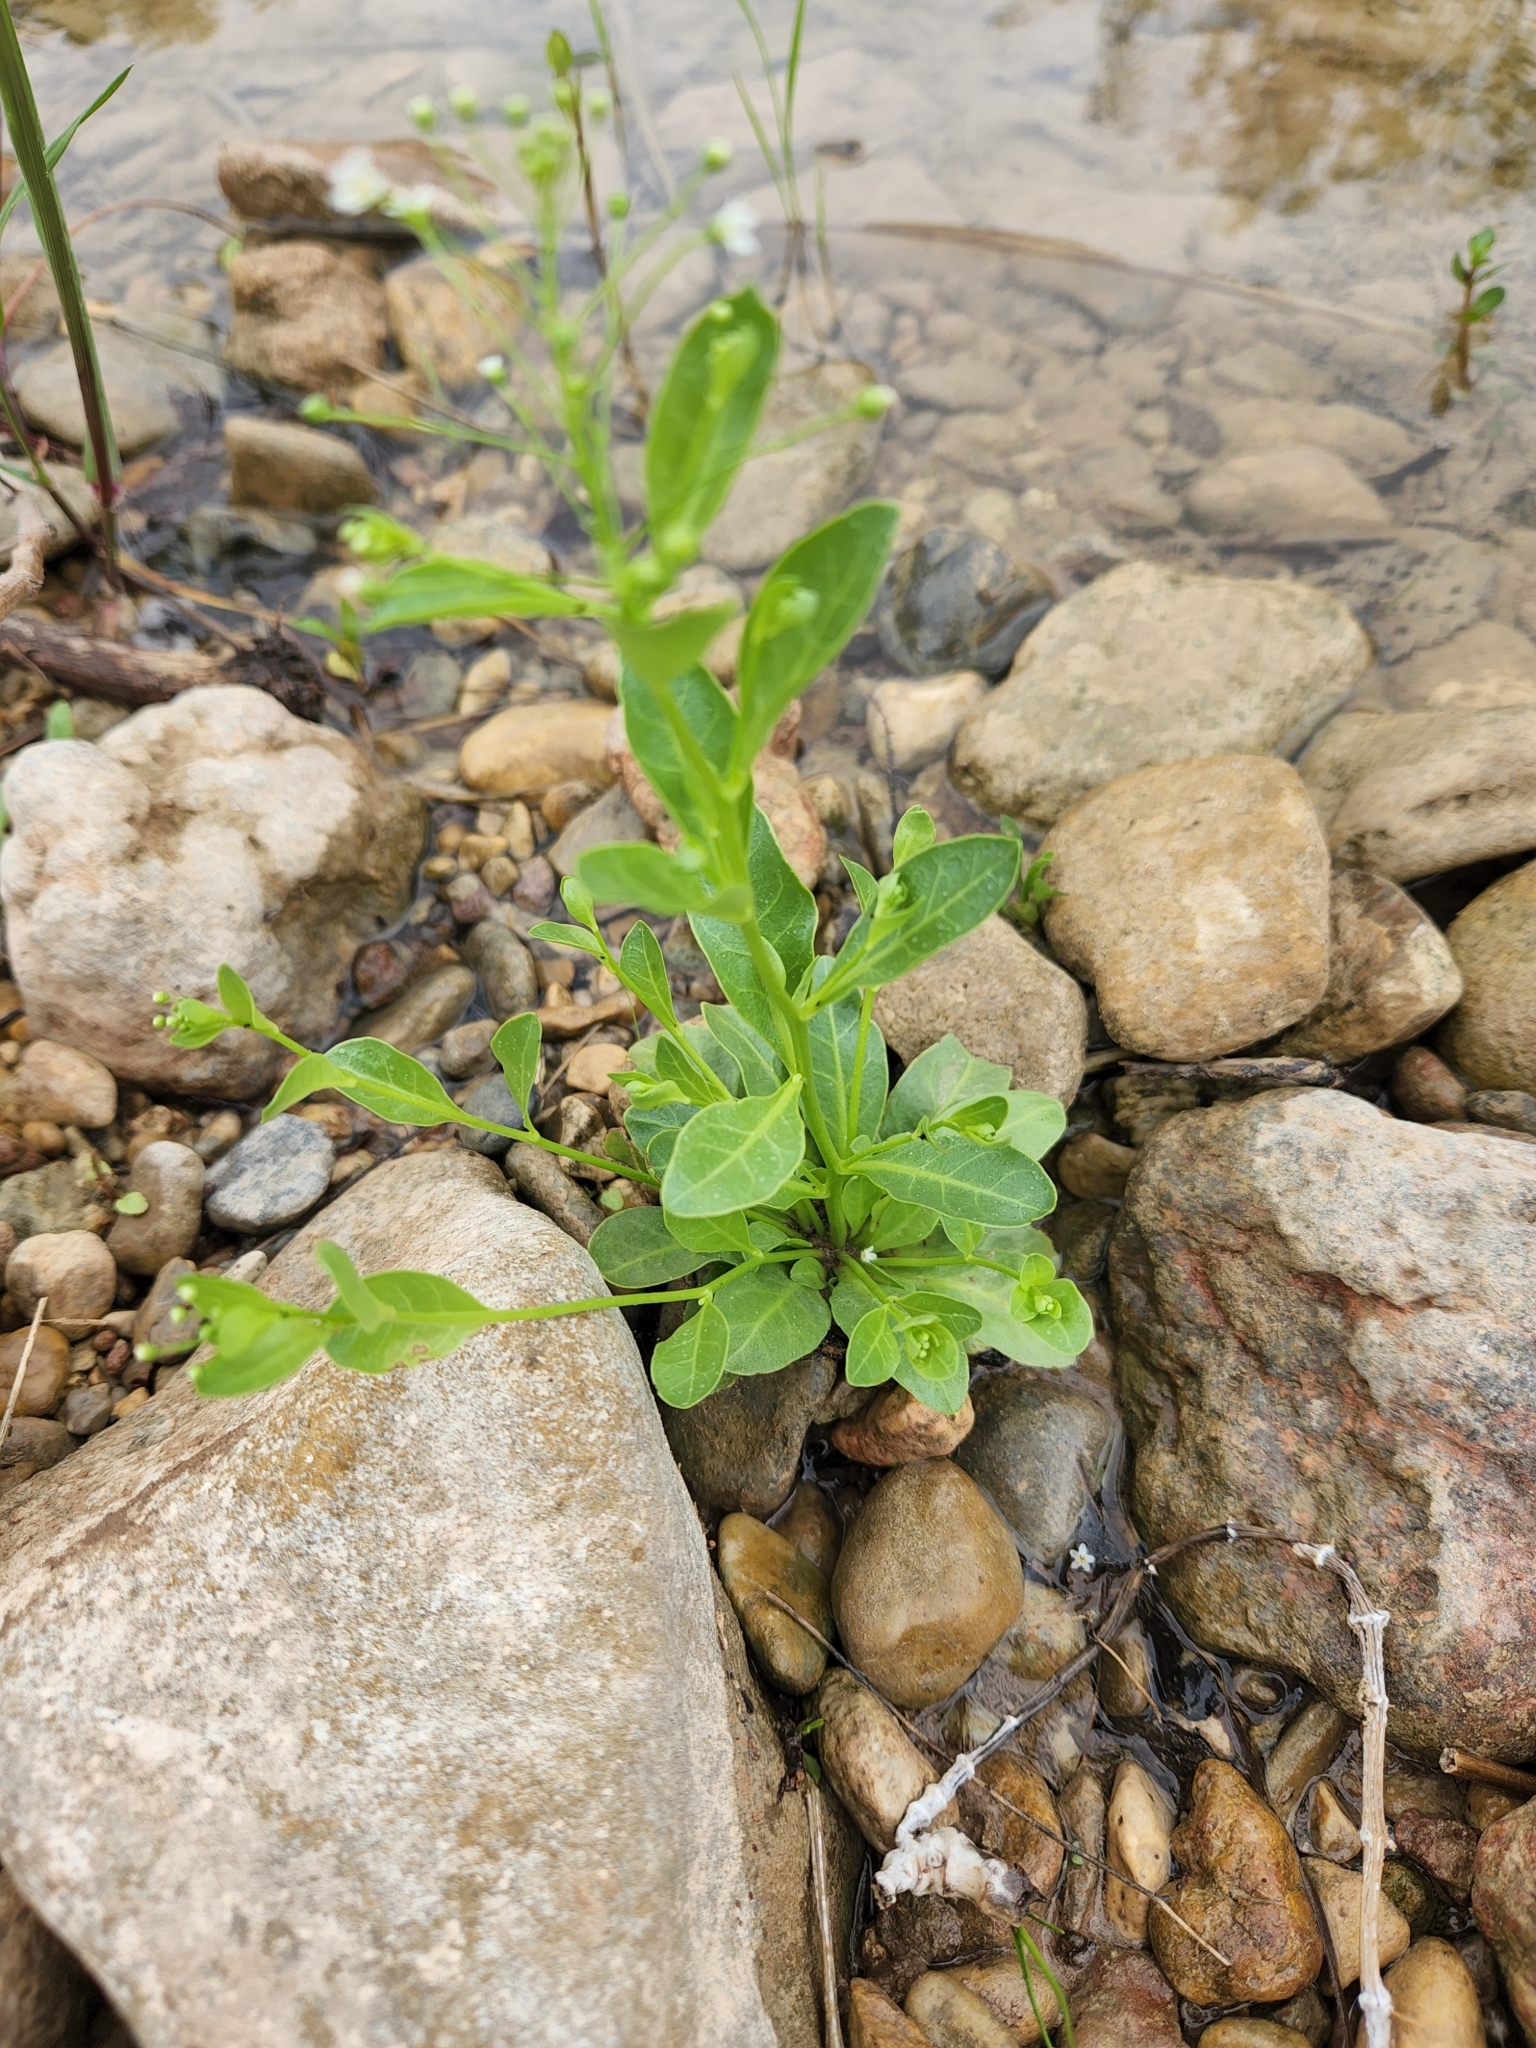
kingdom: Plantae
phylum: Tracheophyta
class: Magnoliopsida
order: Ericales
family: Primulaceae
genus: Samolus
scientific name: Samolus parviflorus
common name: False water pimpernel
